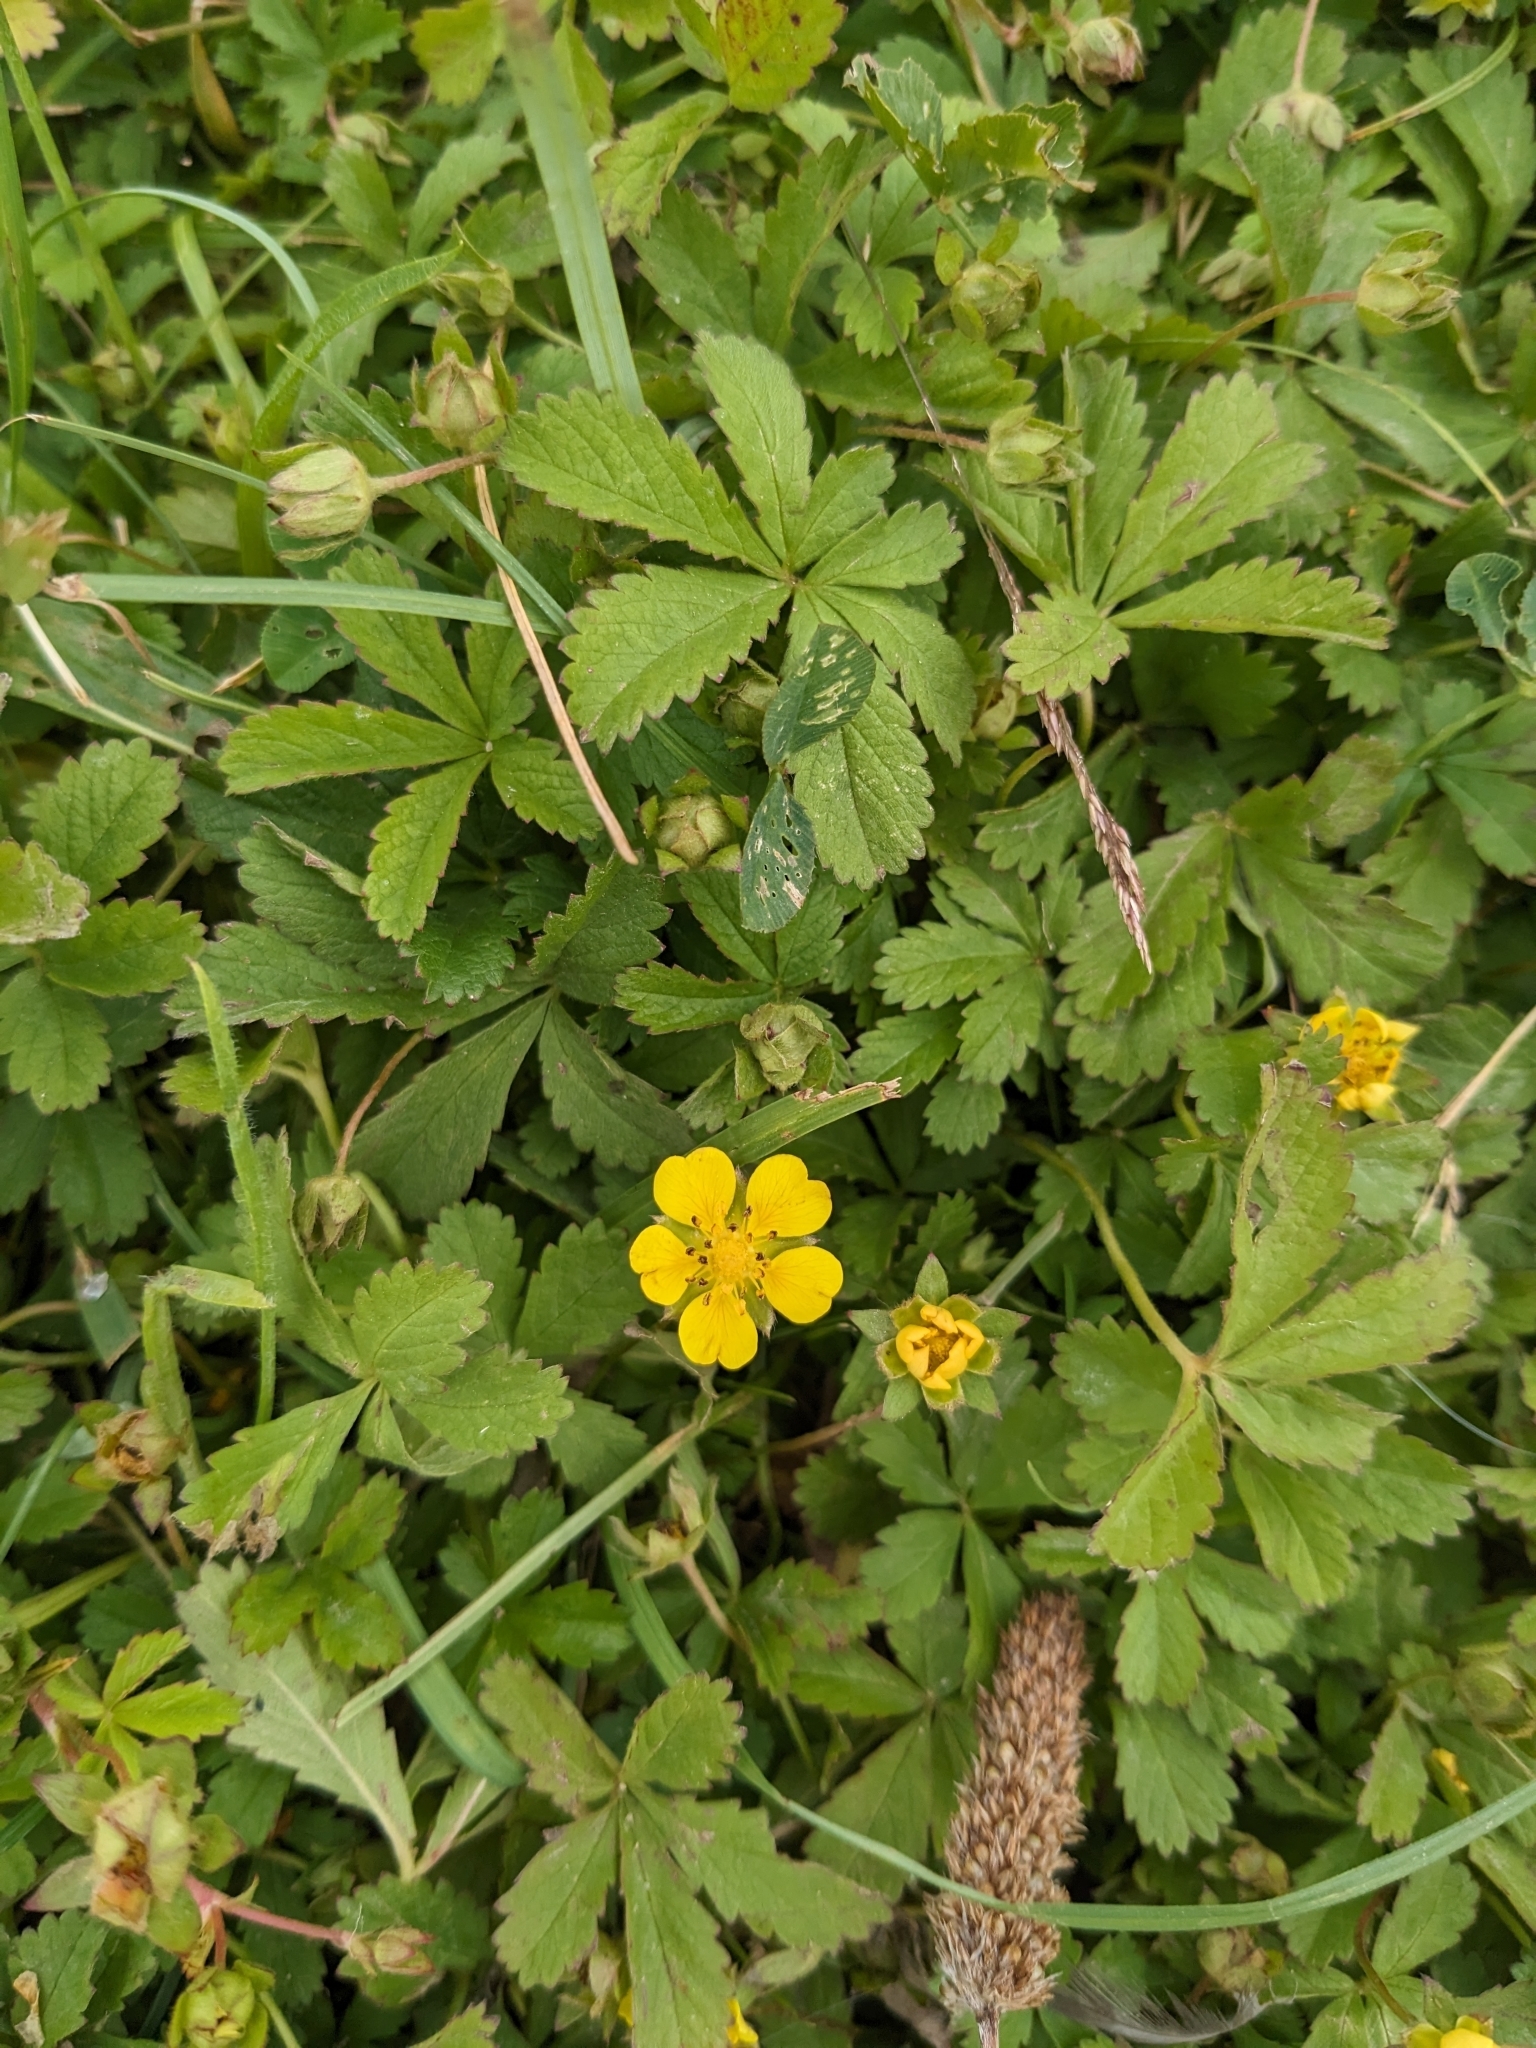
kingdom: Plantae
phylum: Tracheophyta
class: Magnoliopsida
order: Rosales
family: Rosaceae
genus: Potentilla
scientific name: Potentilla reptans
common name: Creeping cinquefoil
